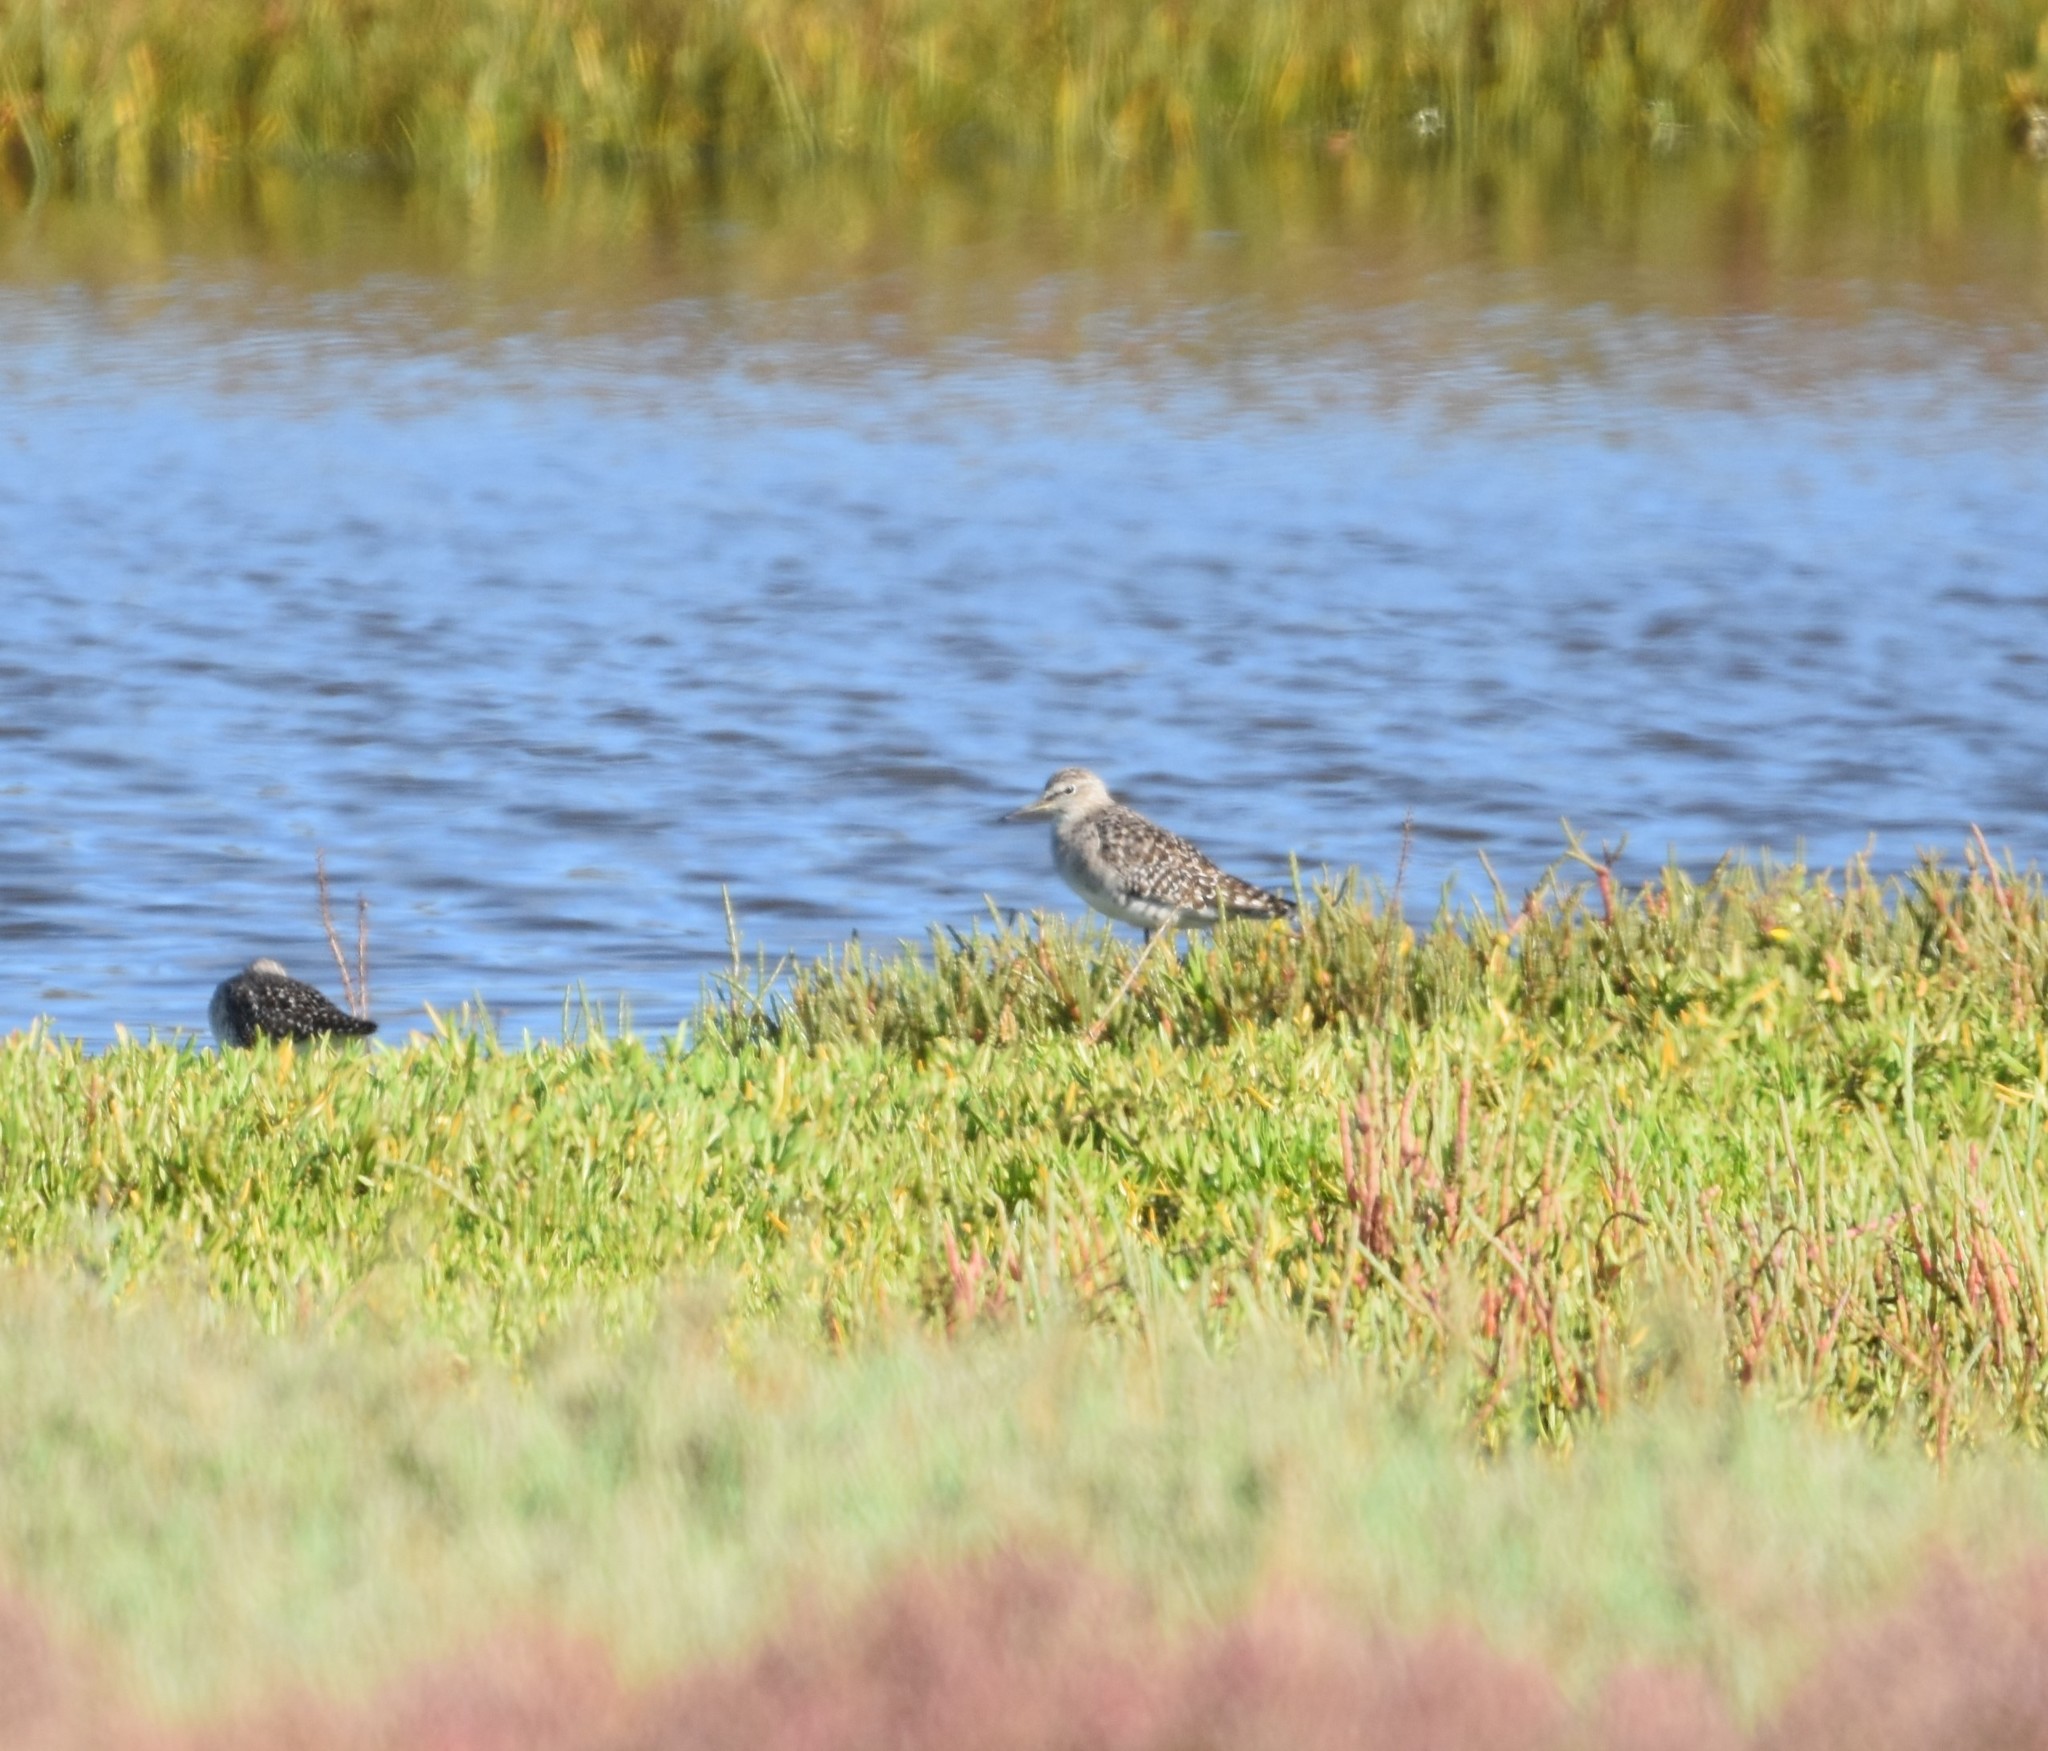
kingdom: Animalia
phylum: Chordata
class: Aves
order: Charadriiformes
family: Scolopacidae
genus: Tringa
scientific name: Tringa glareola
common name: Wood sandpiper
